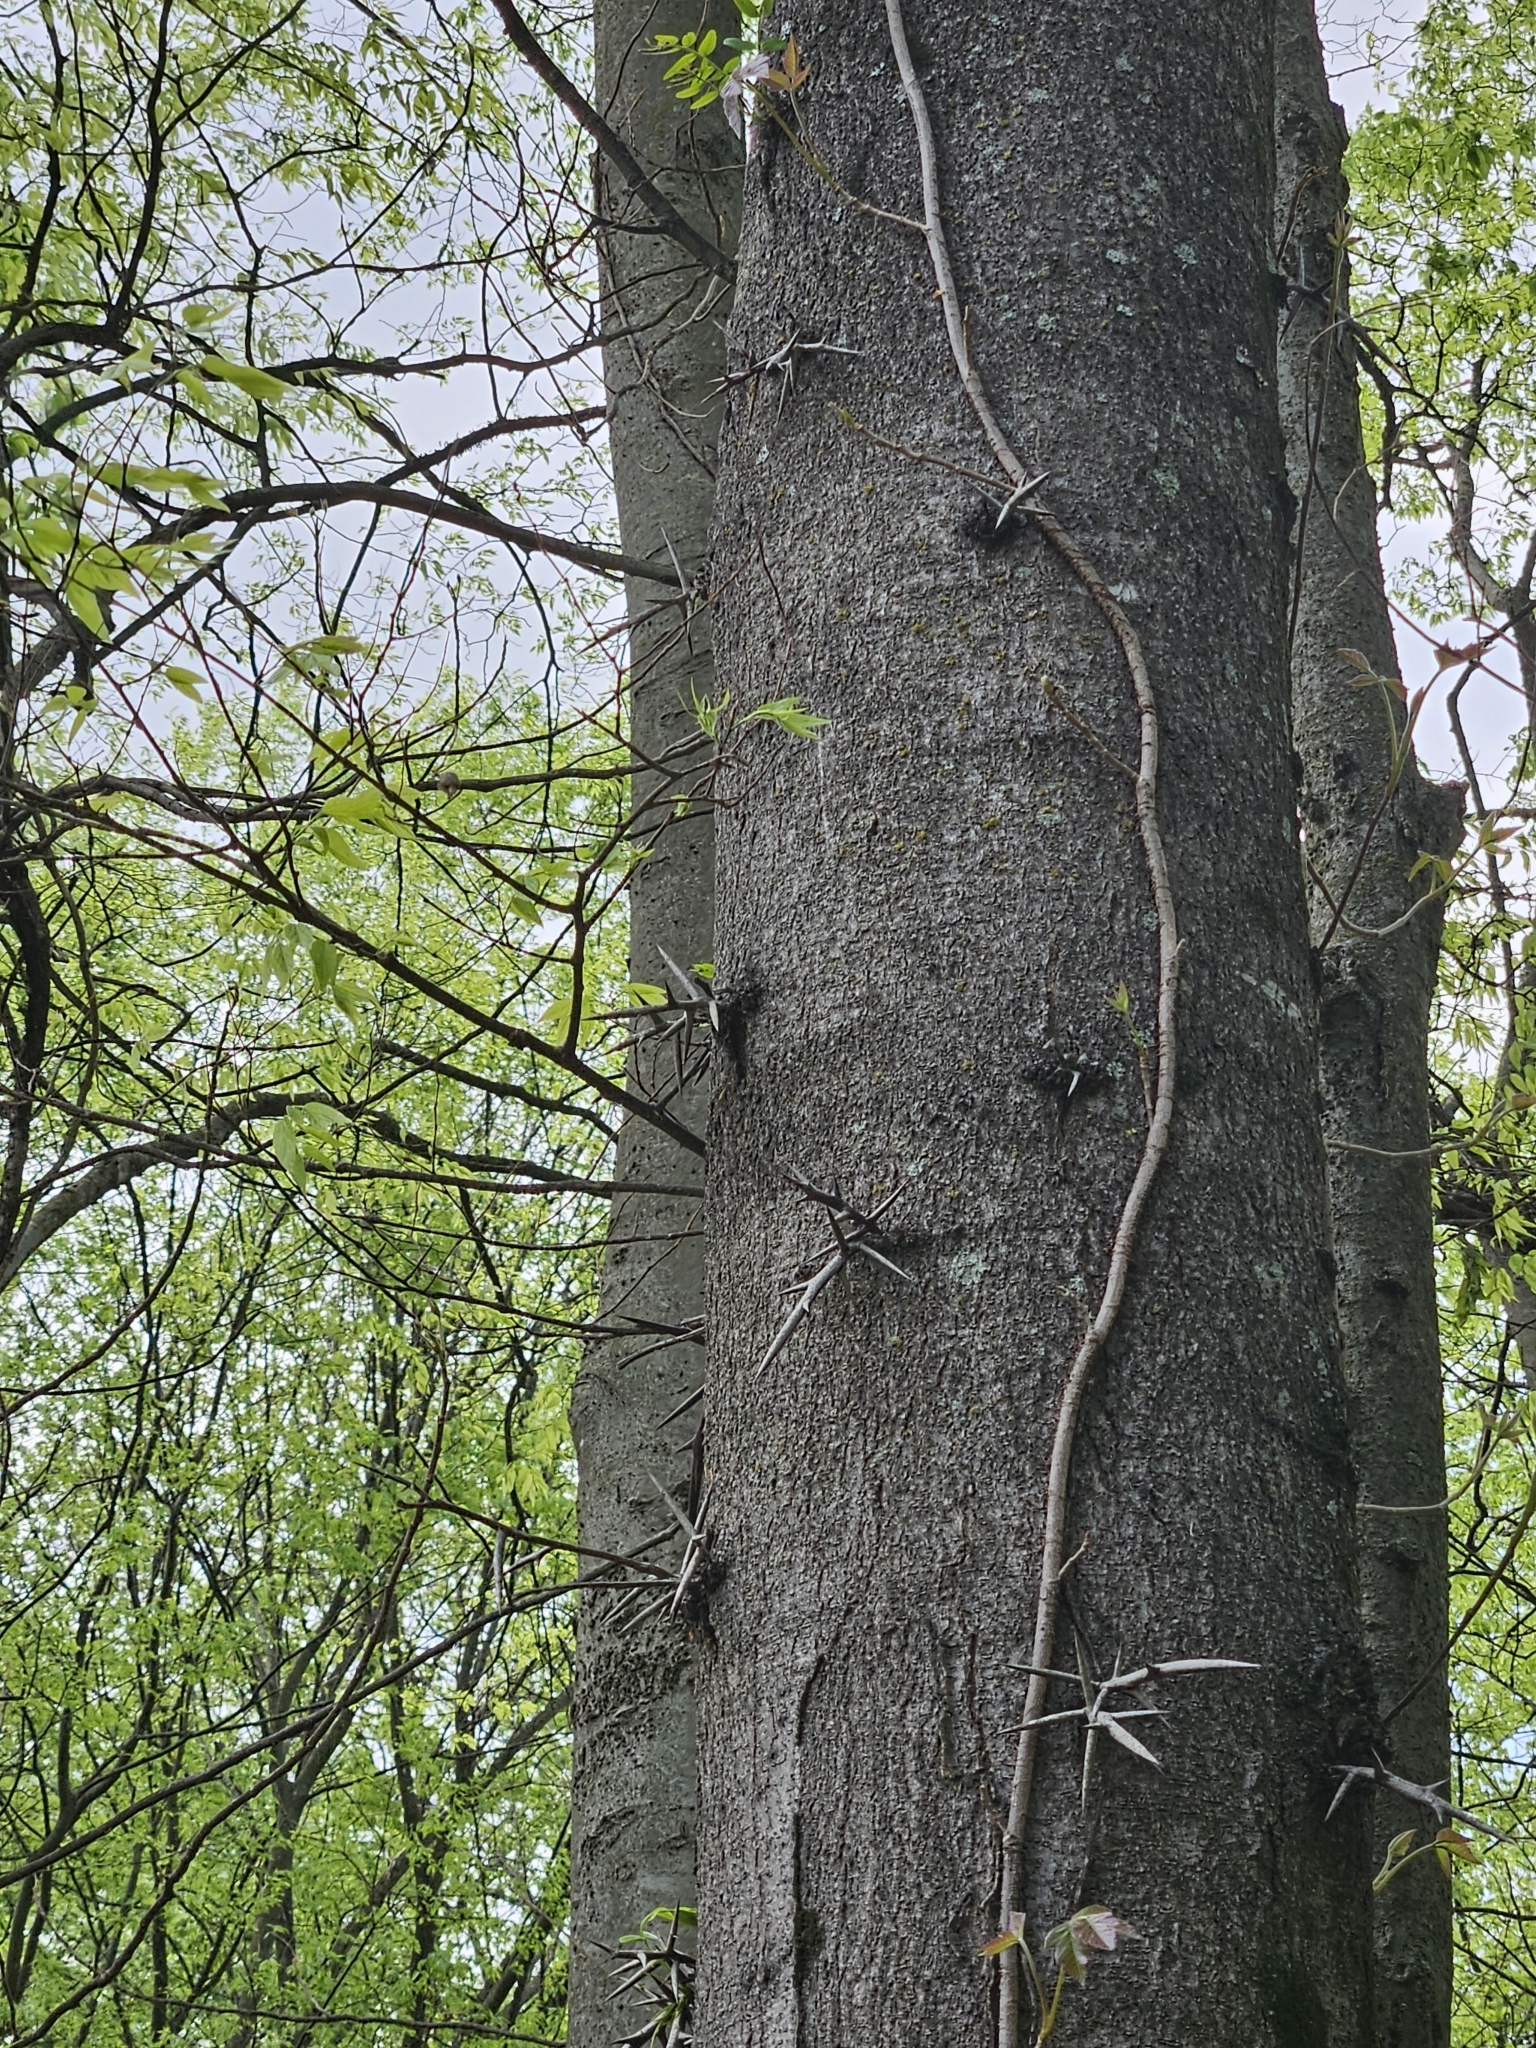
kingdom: Plantae
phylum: Tracheophyta
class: Magnoliopsida
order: Fabales
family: Fabaceae
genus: Gleditsia
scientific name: Gleditsia triacanthos
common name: Common honeylocust
